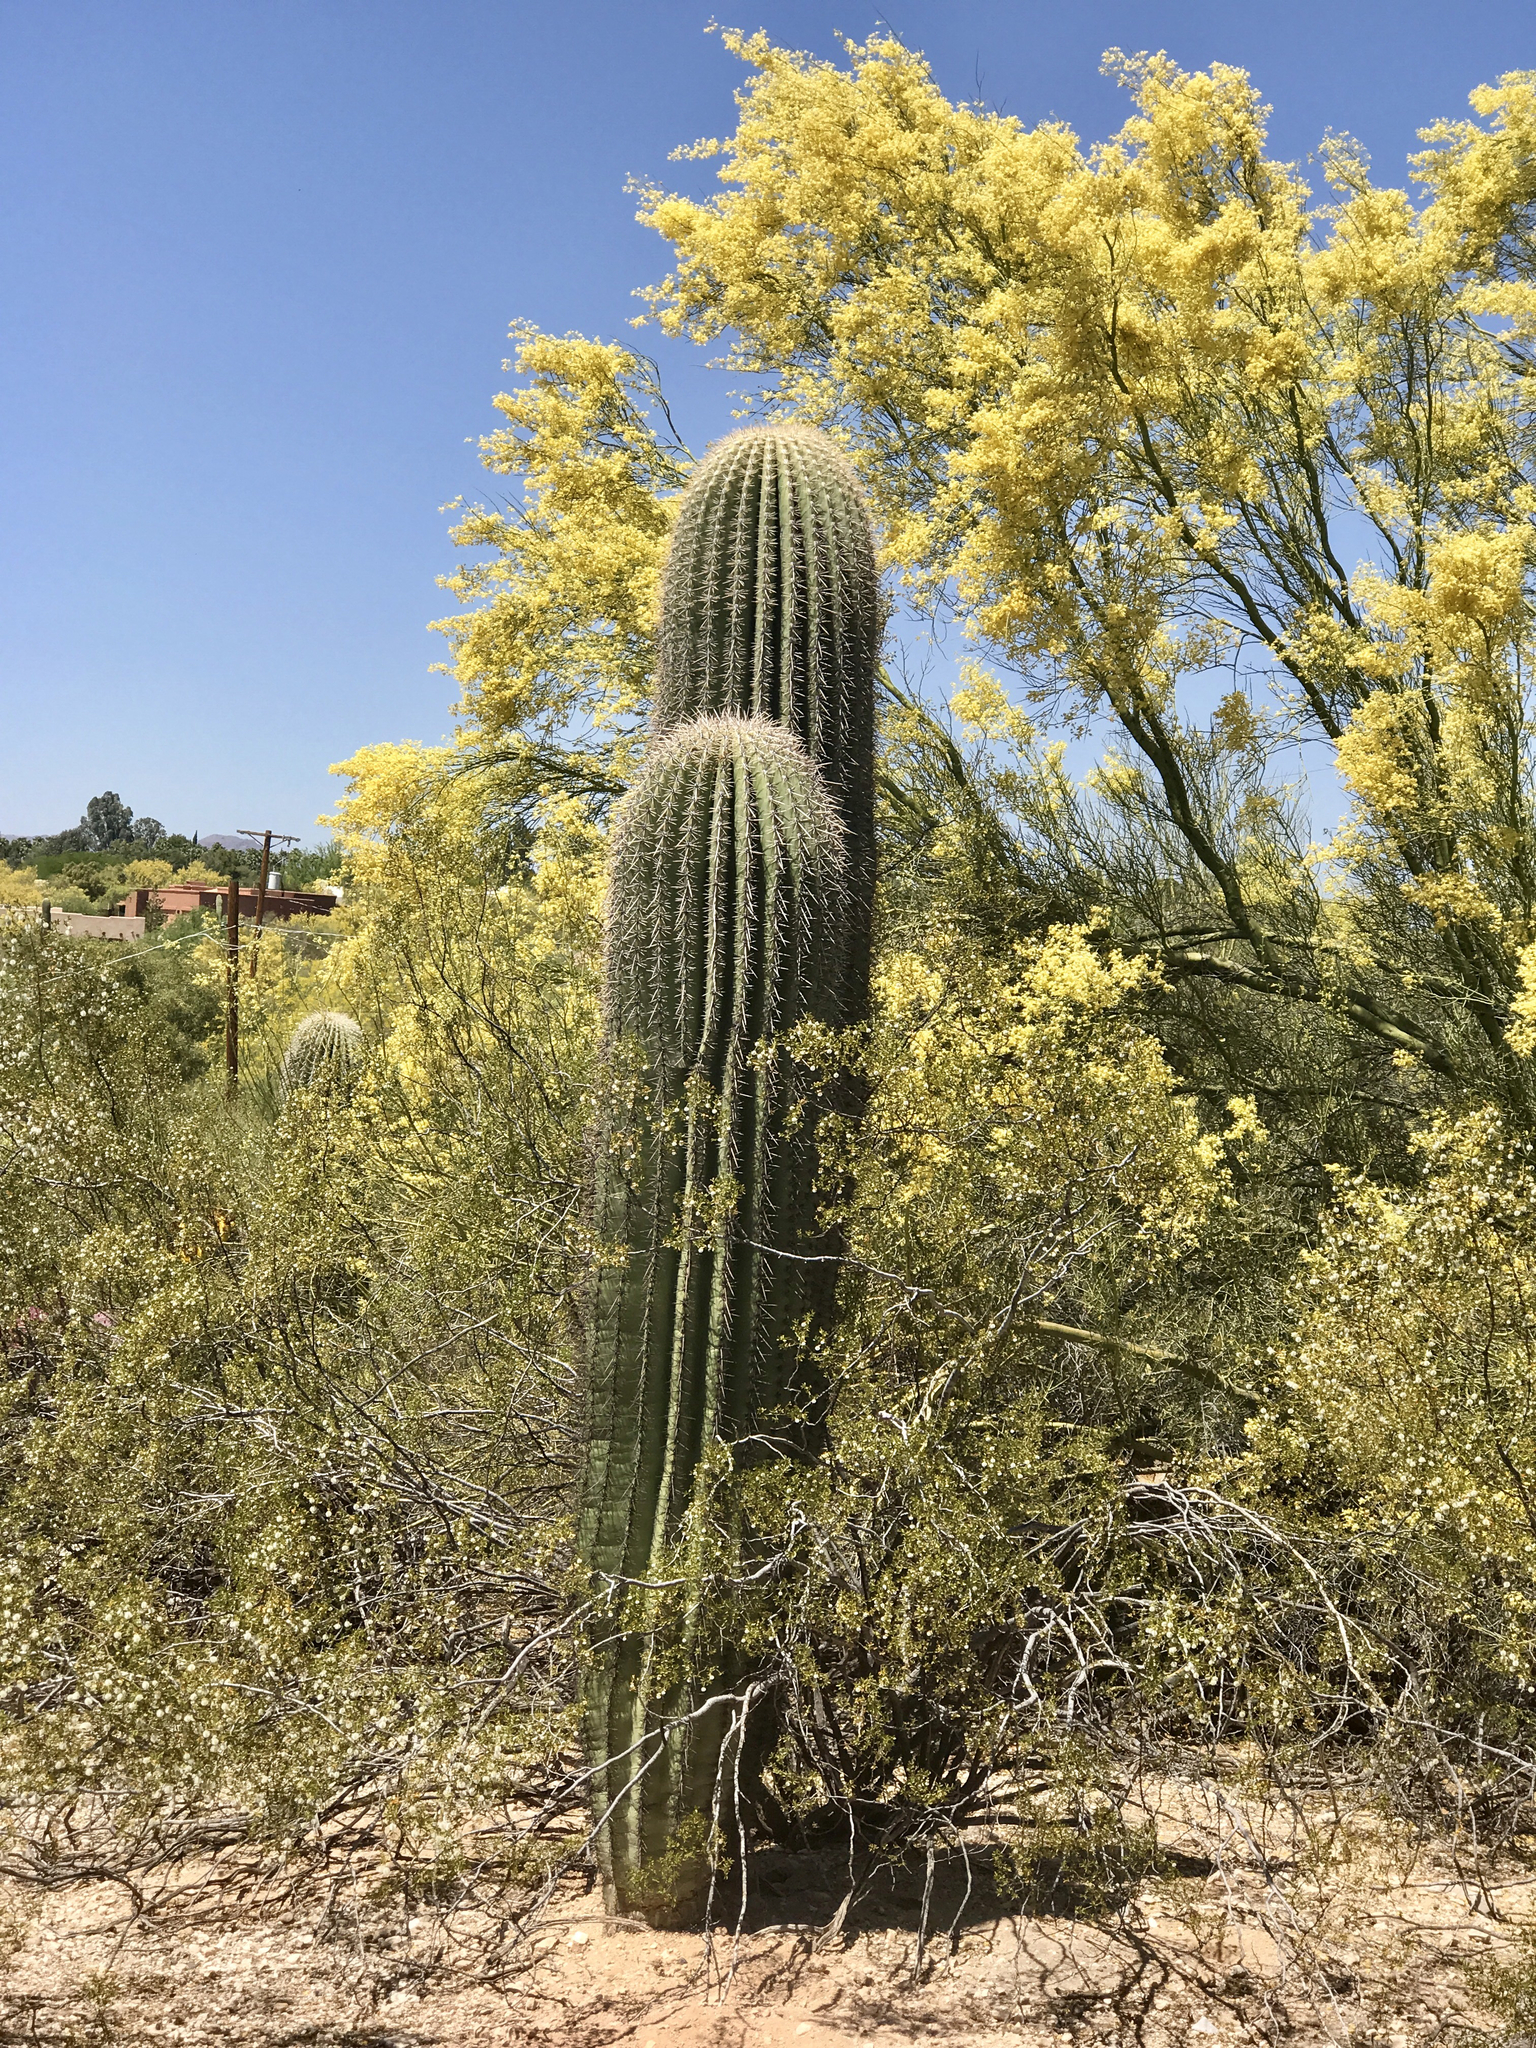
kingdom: Plantae
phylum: Tracheophyta
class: Magnoliopsida
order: Caryophyllales
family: Cactaceae
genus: Carnegiea
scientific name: Carnegiea gigantea
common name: Saguaro
